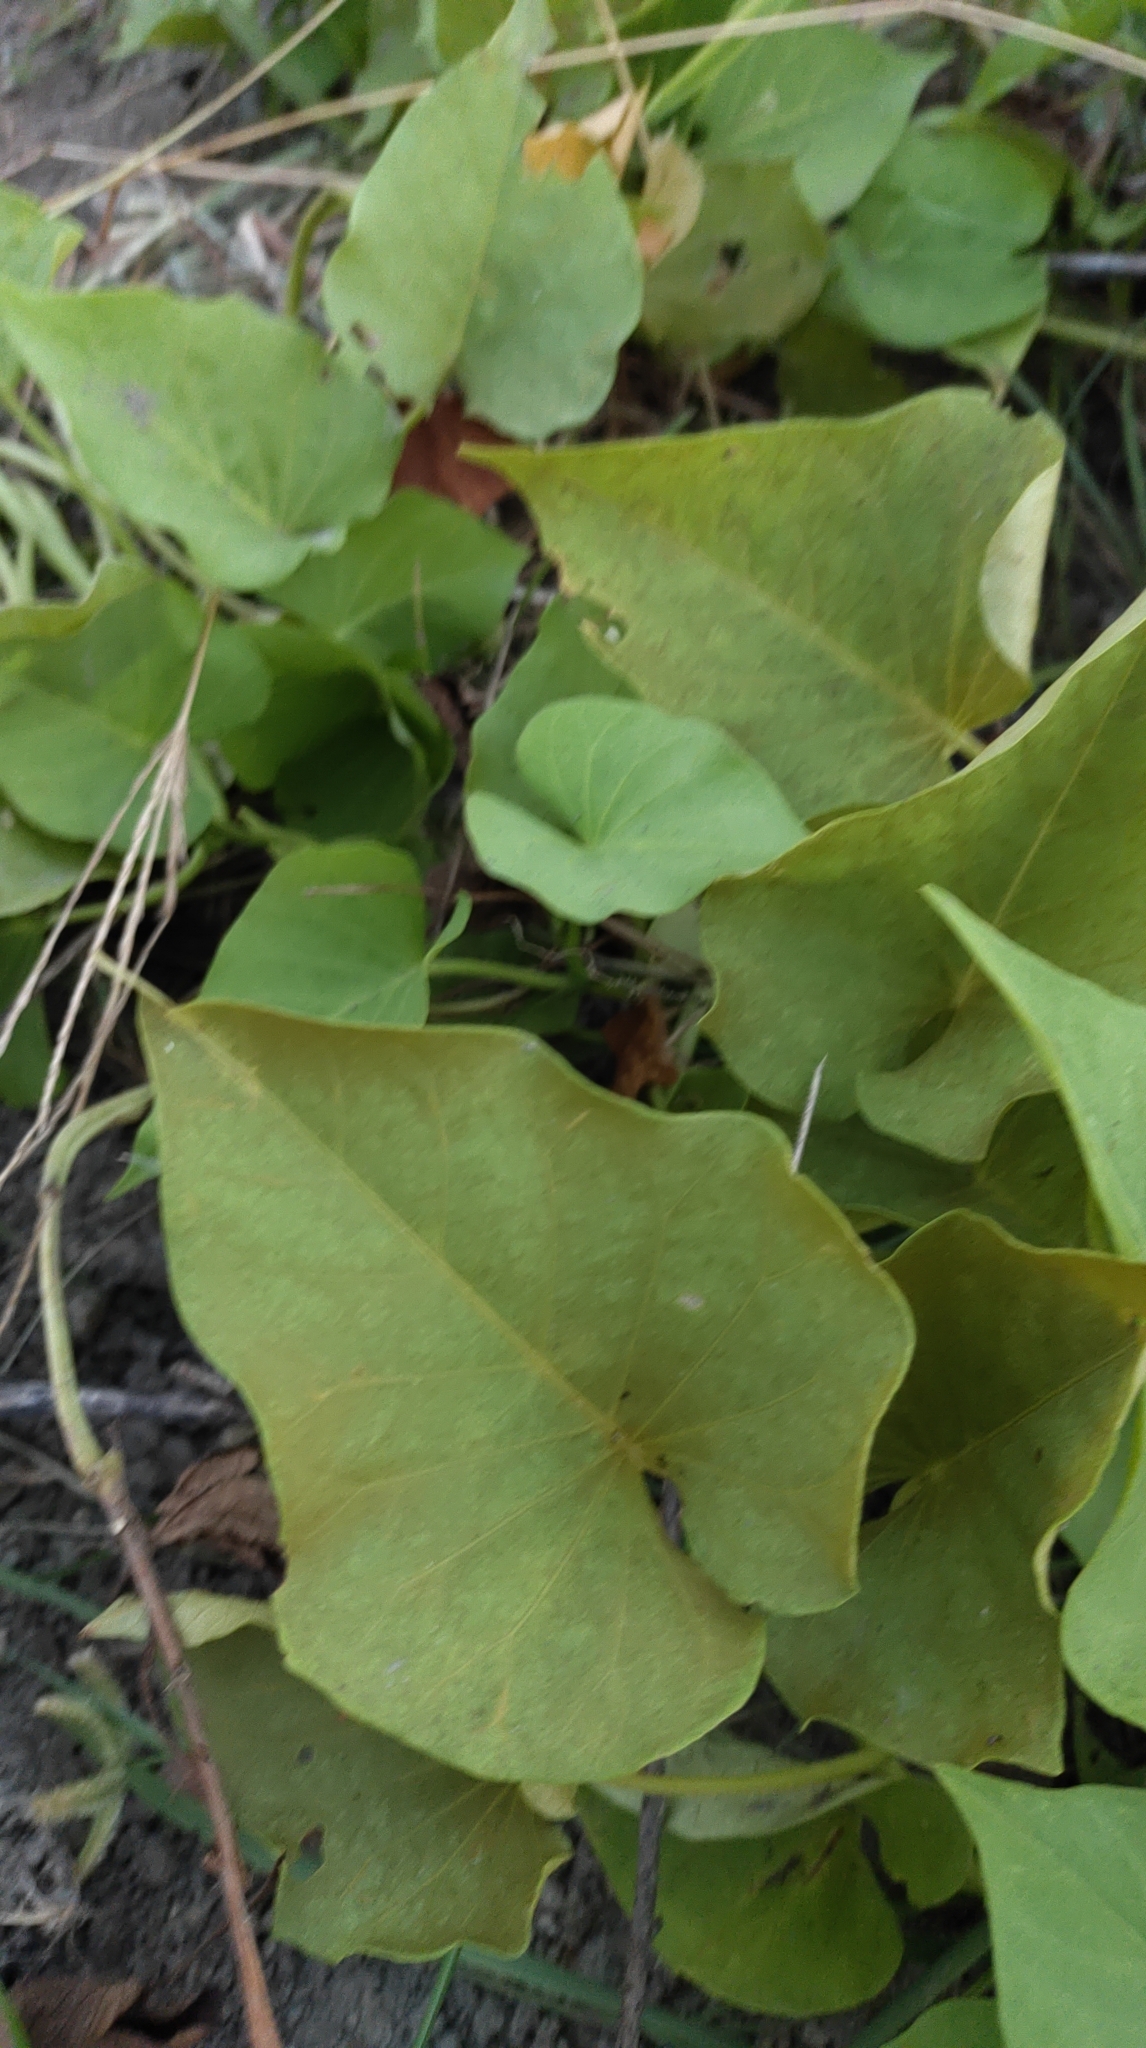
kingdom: Plantae
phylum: Tracheophyta
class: Magnoliopsida
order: Solanales
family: Convolvulaceae
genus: Ipomoea
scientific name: Ipomoea batatas
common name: Sweet-potato
